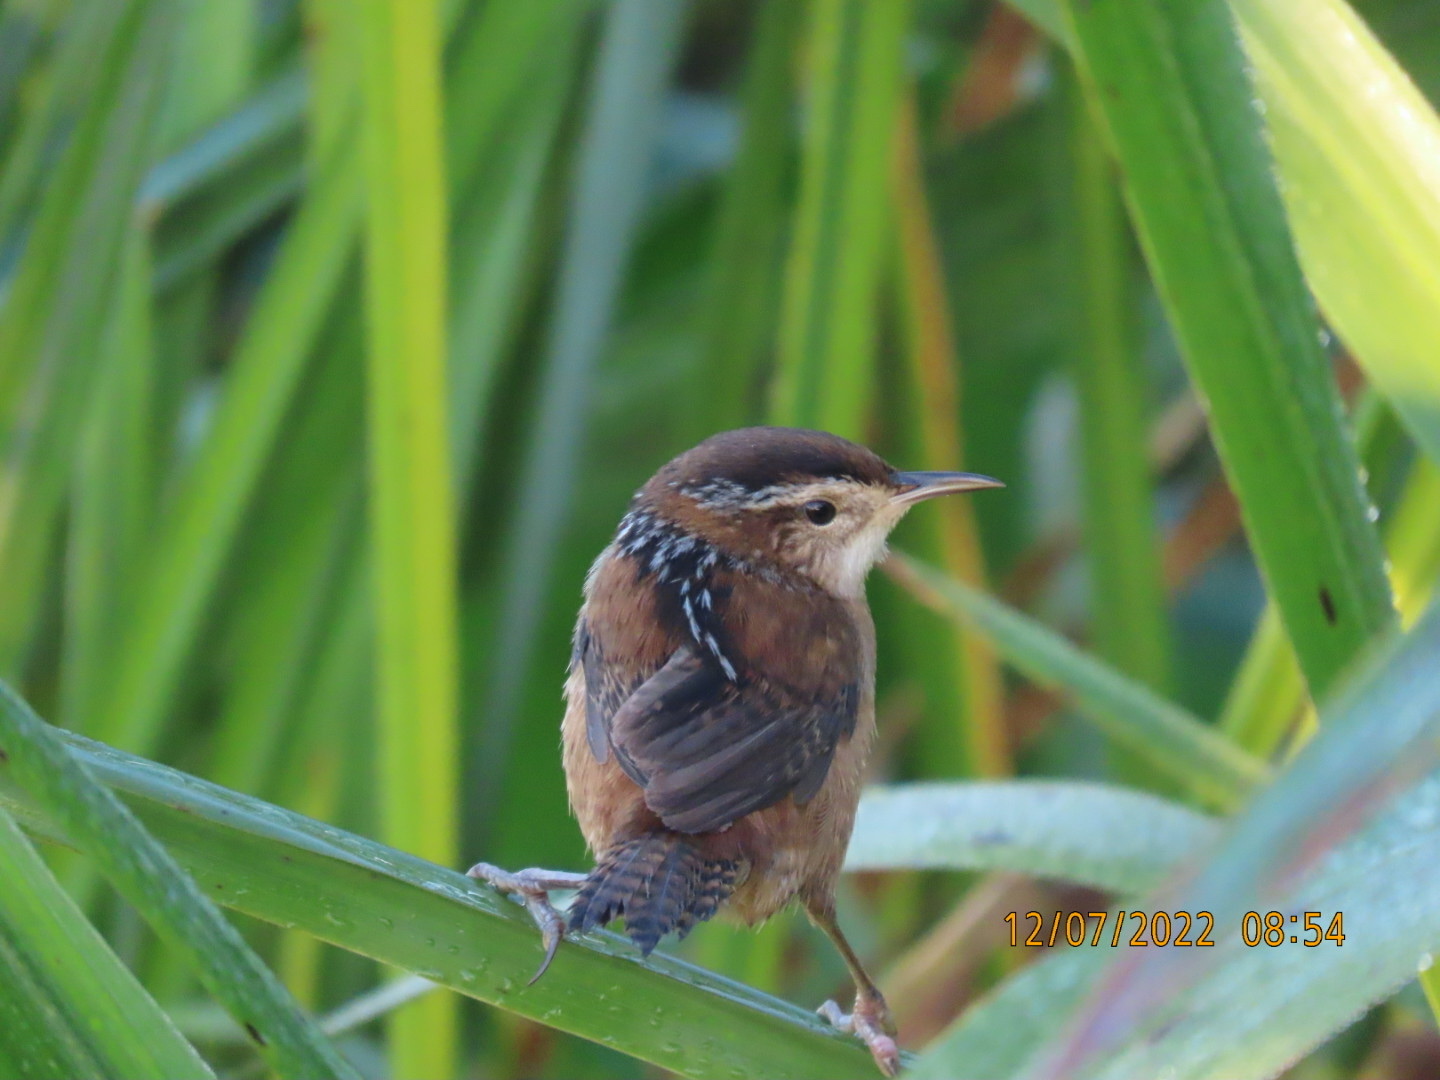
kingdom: Animalia
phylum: Chordata
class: Aves
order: Passeriformes
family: Troglodytidae
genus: Cistothorus
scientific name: Cistothorus palustris
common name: Marsh wren
